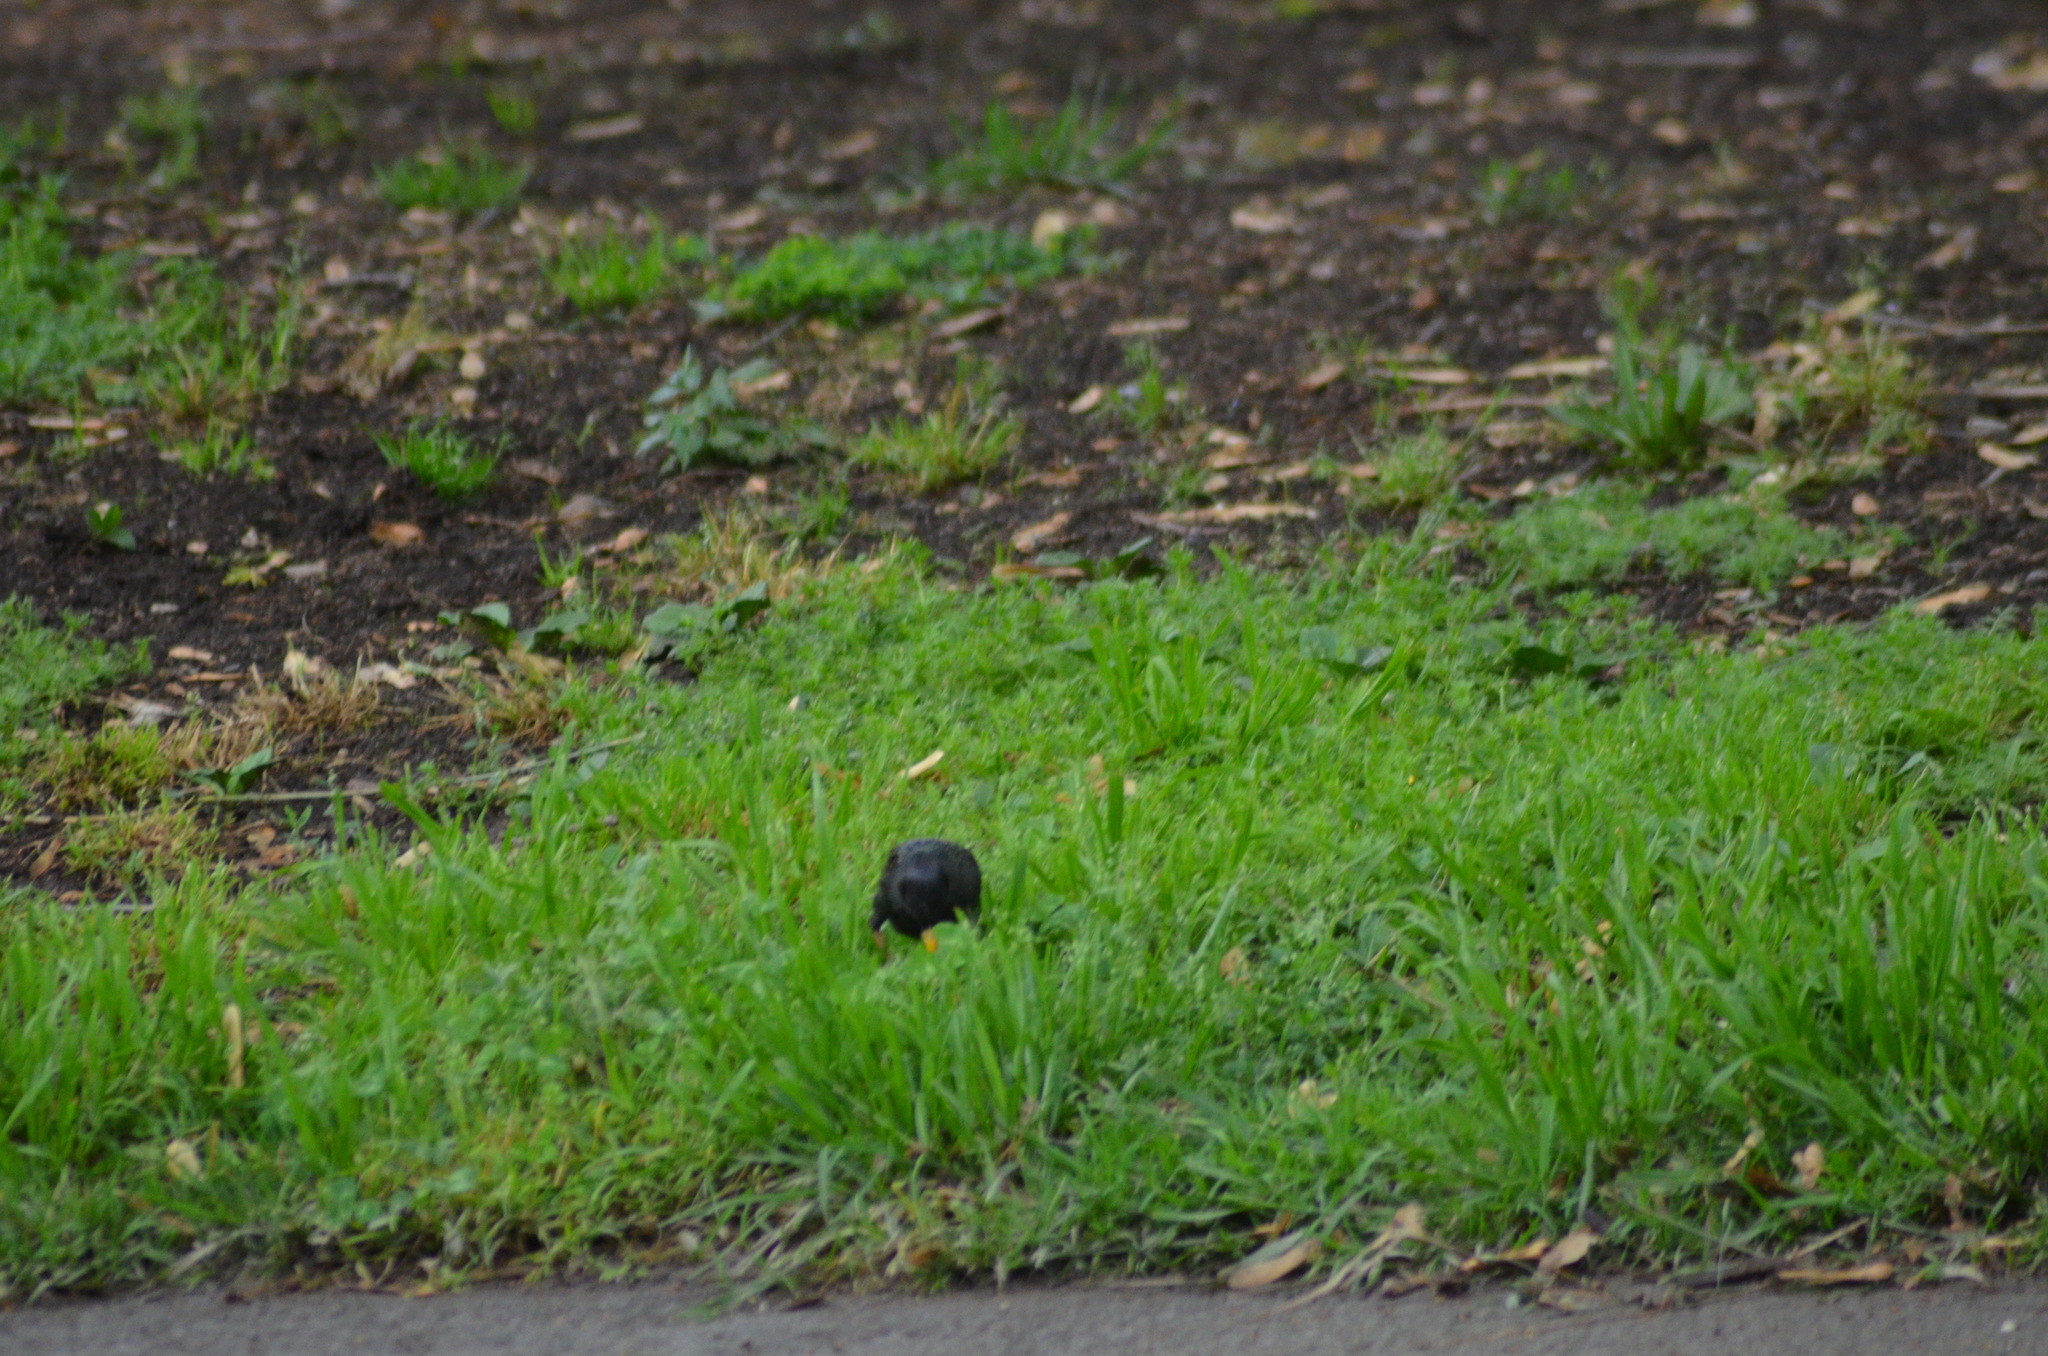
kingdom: Animalia
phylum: Chordata
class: Aves
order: Passeriformes
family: Sturnidae
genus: Sturnus
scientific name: Sturnus vulgaris
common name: Common starling
